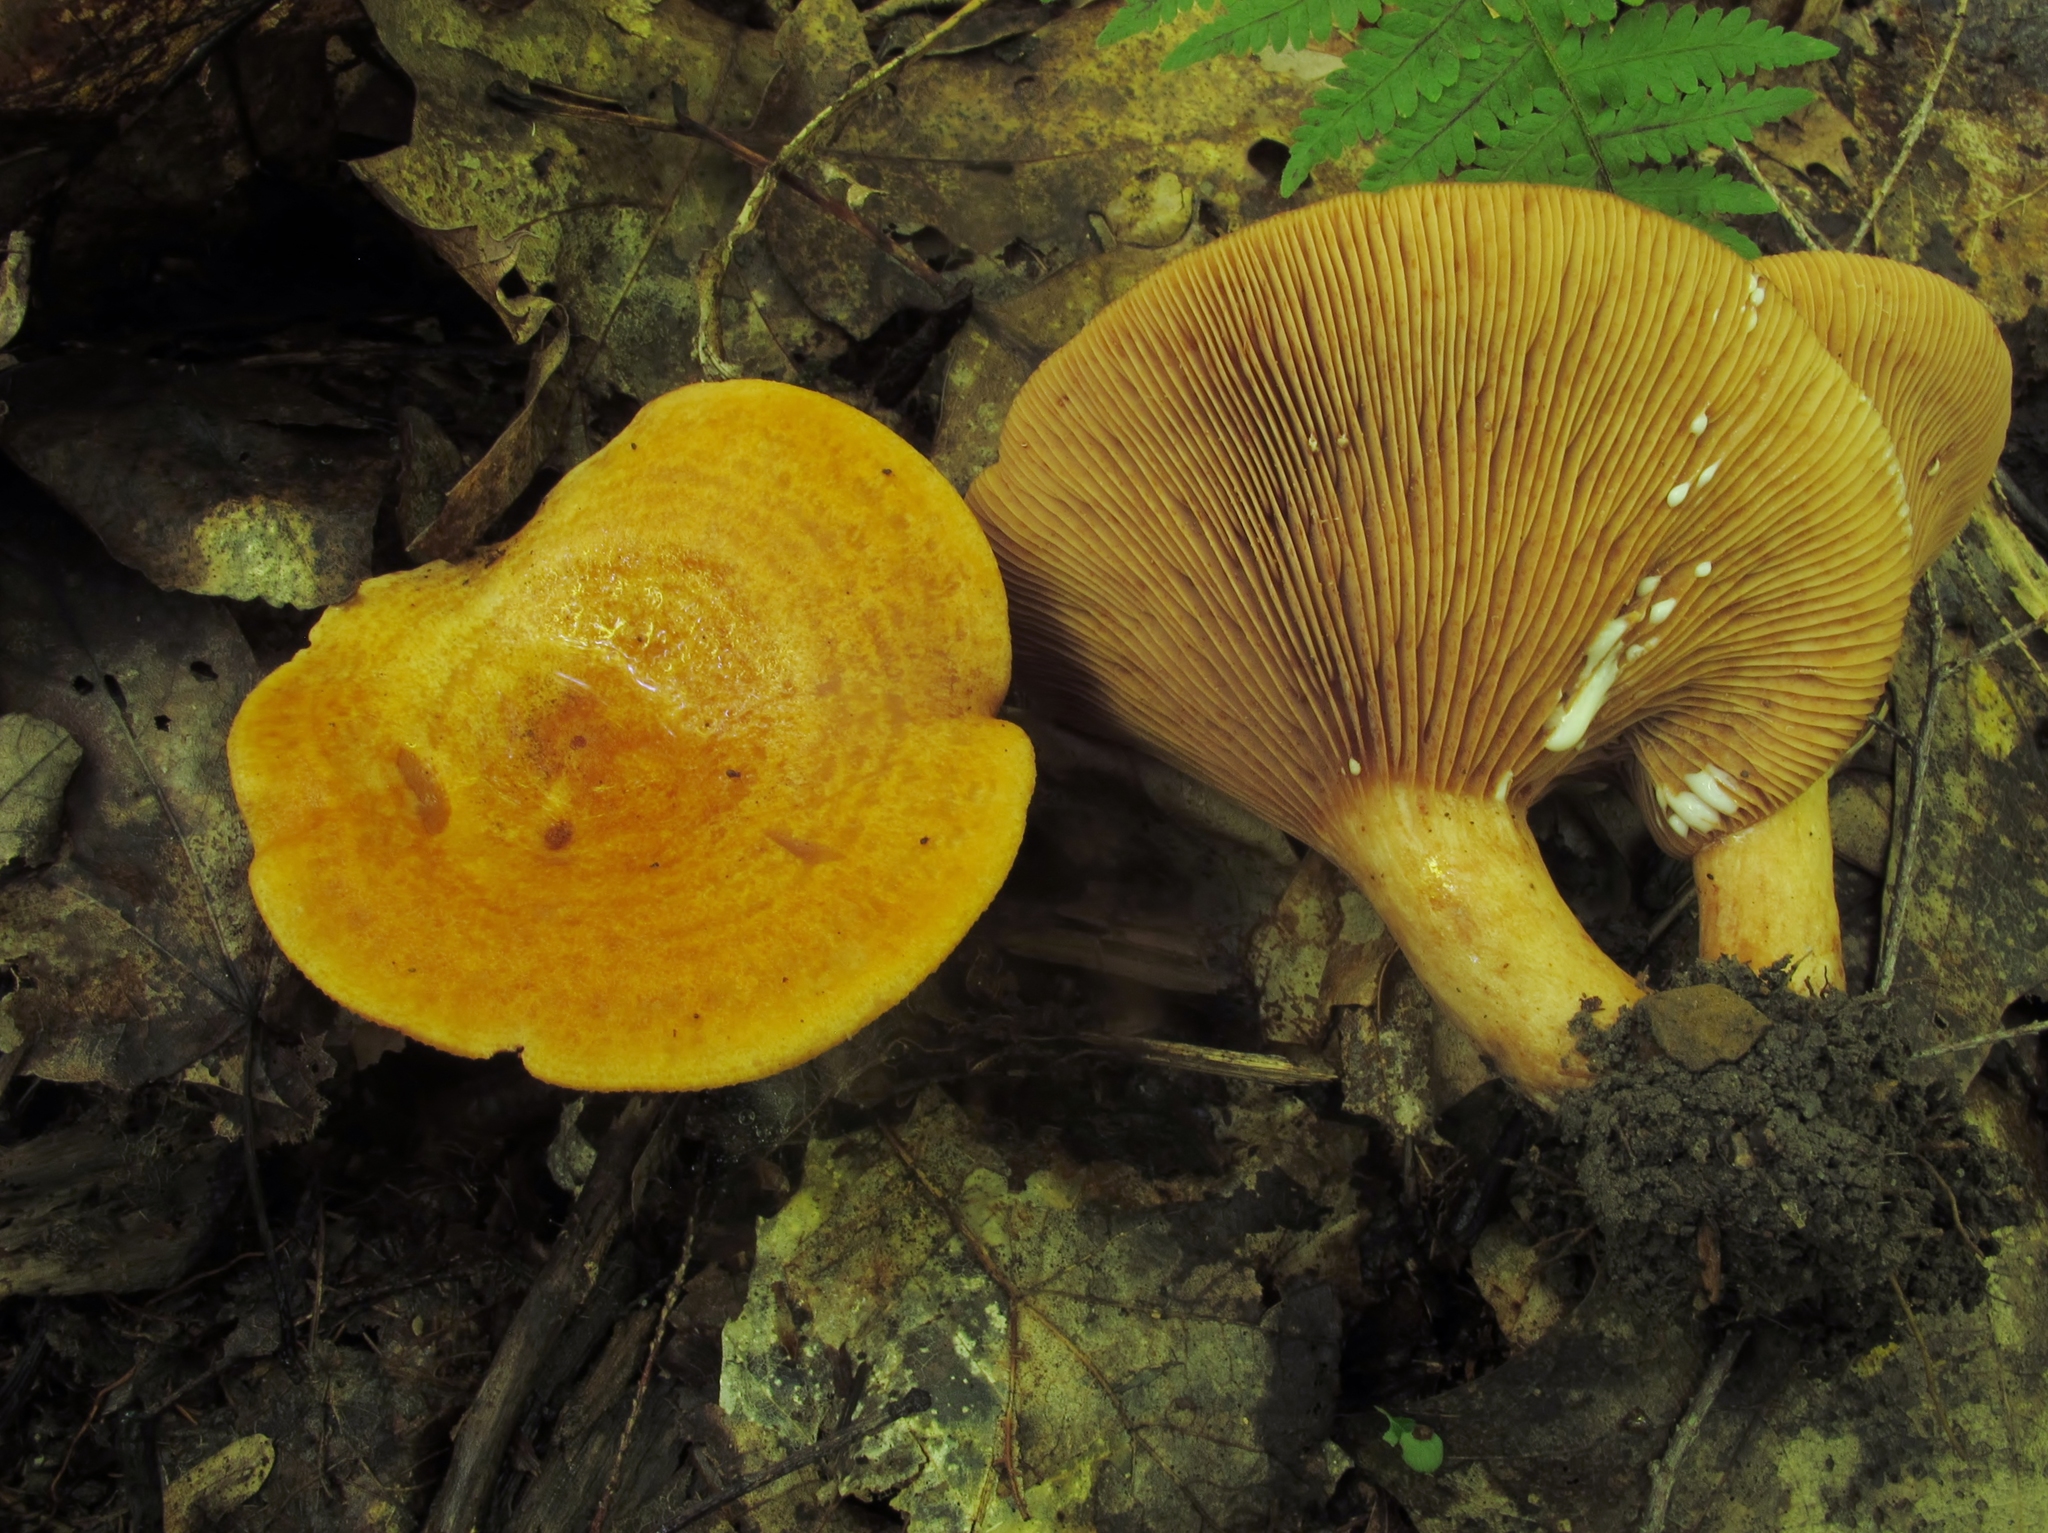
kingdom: Fungi
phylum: Basidiomycota
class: Agaricomycetes
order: Russulales
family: Russulaceae
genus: Lactarius
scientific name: Lactarius peckii
